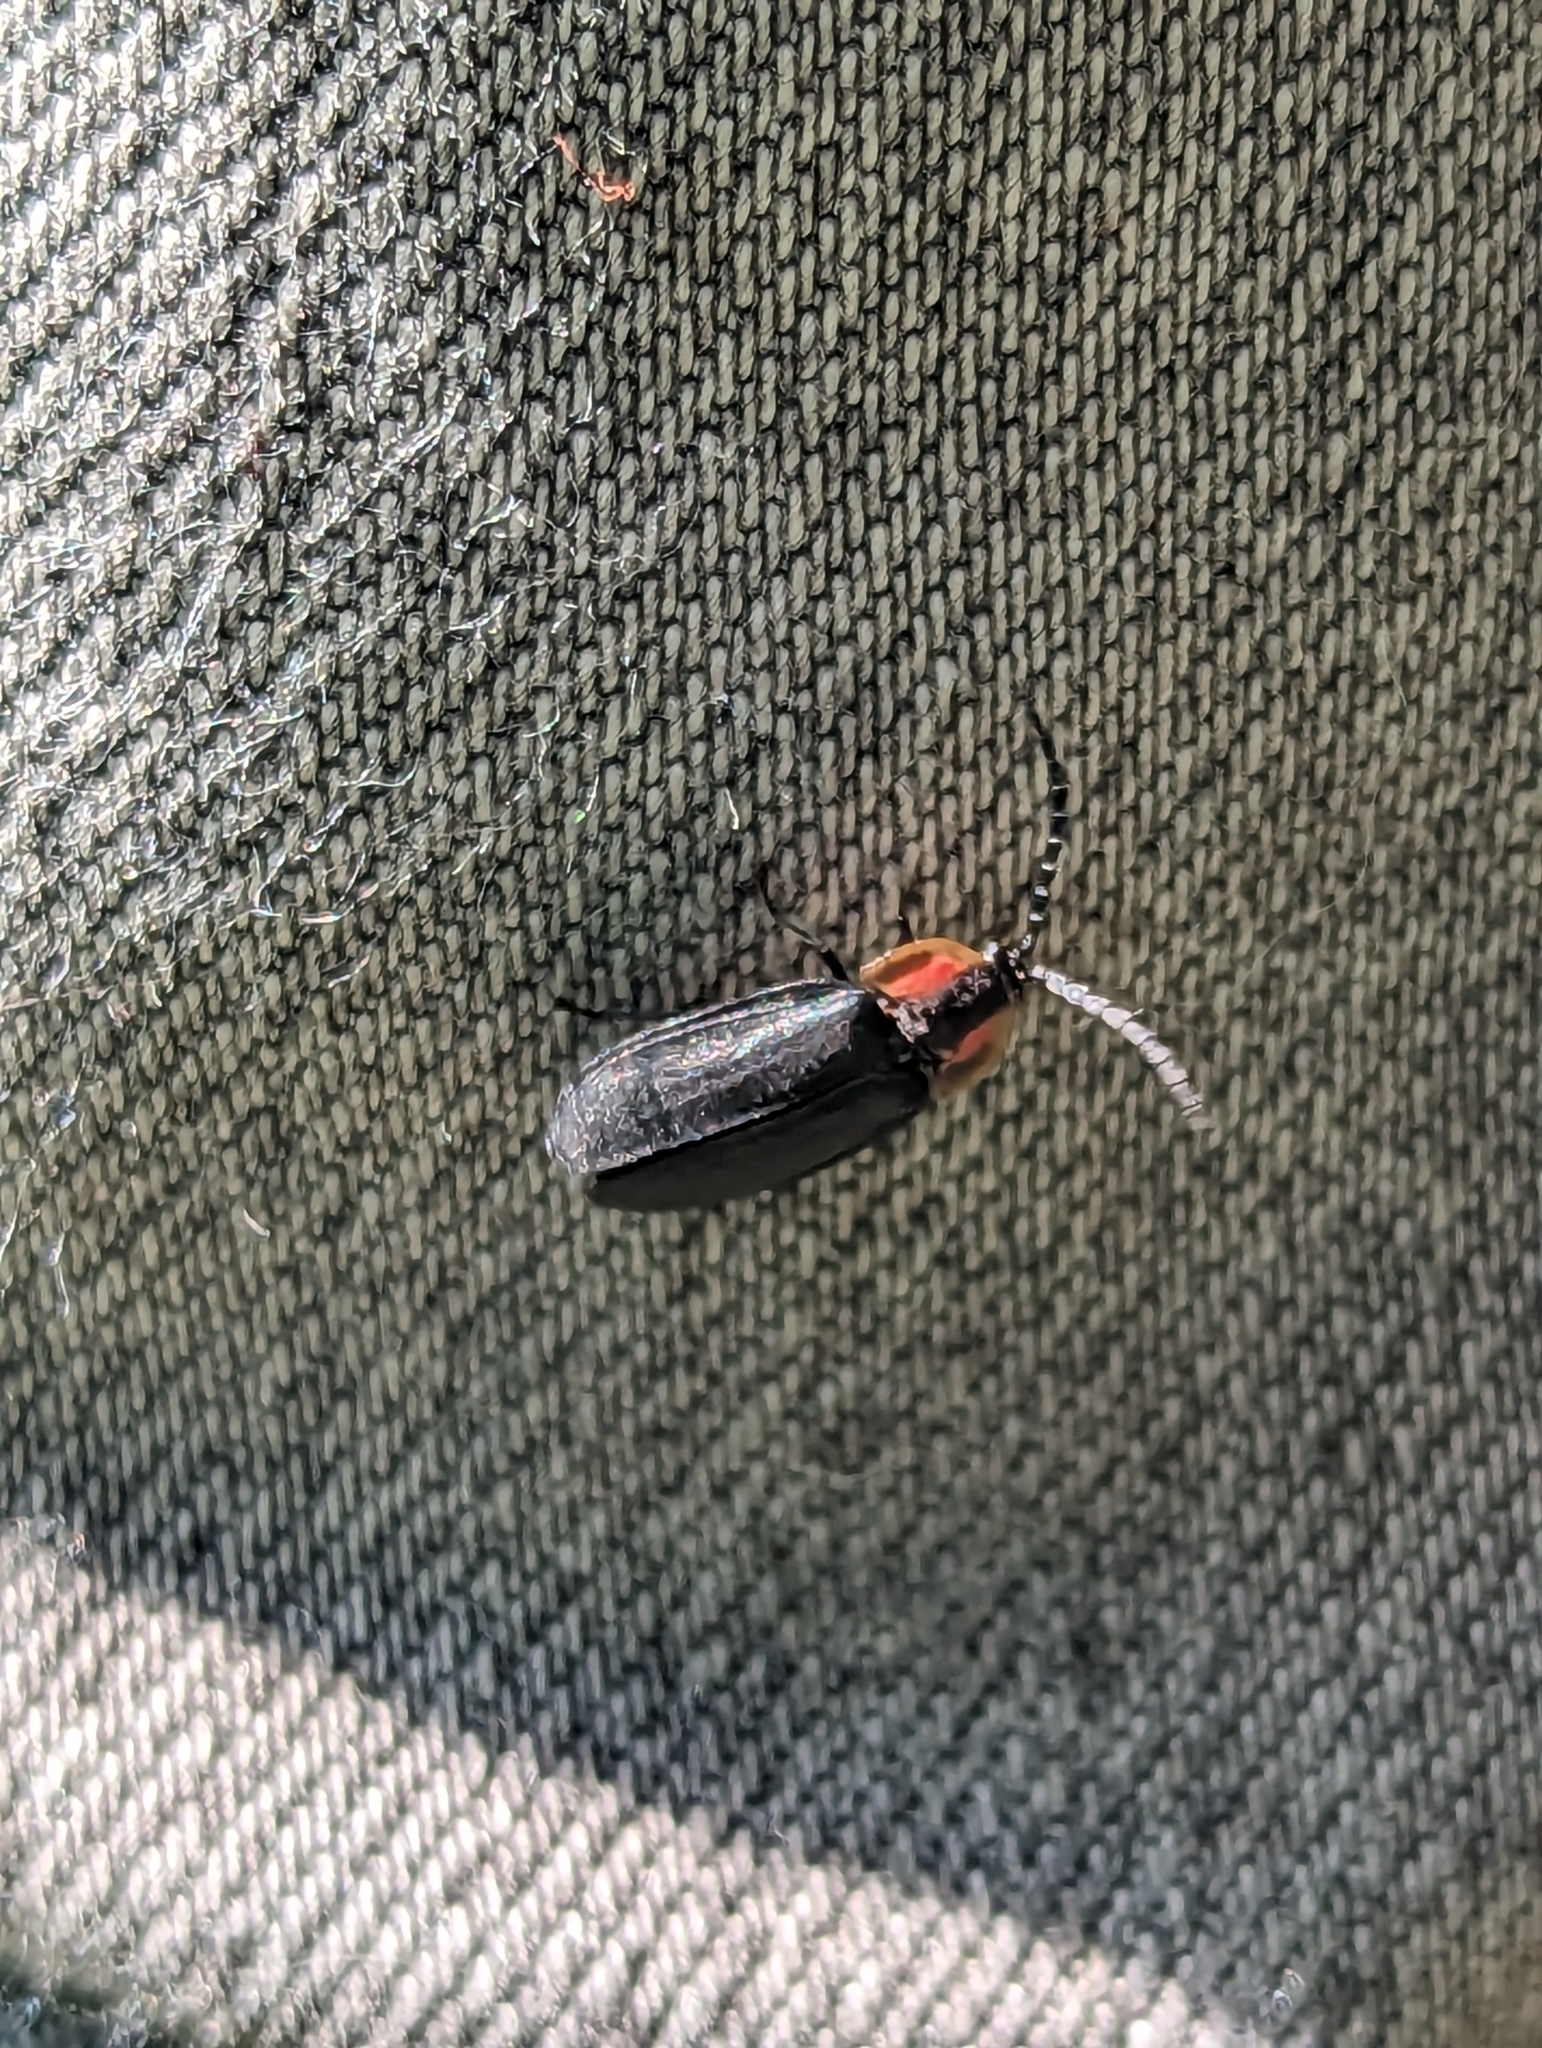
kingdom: Animalia
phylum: Arthropoda
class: Insecta
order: Coleoptera
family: Lampyridae
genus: Lucidota
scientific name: Lucidota atra
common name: Black firefly
